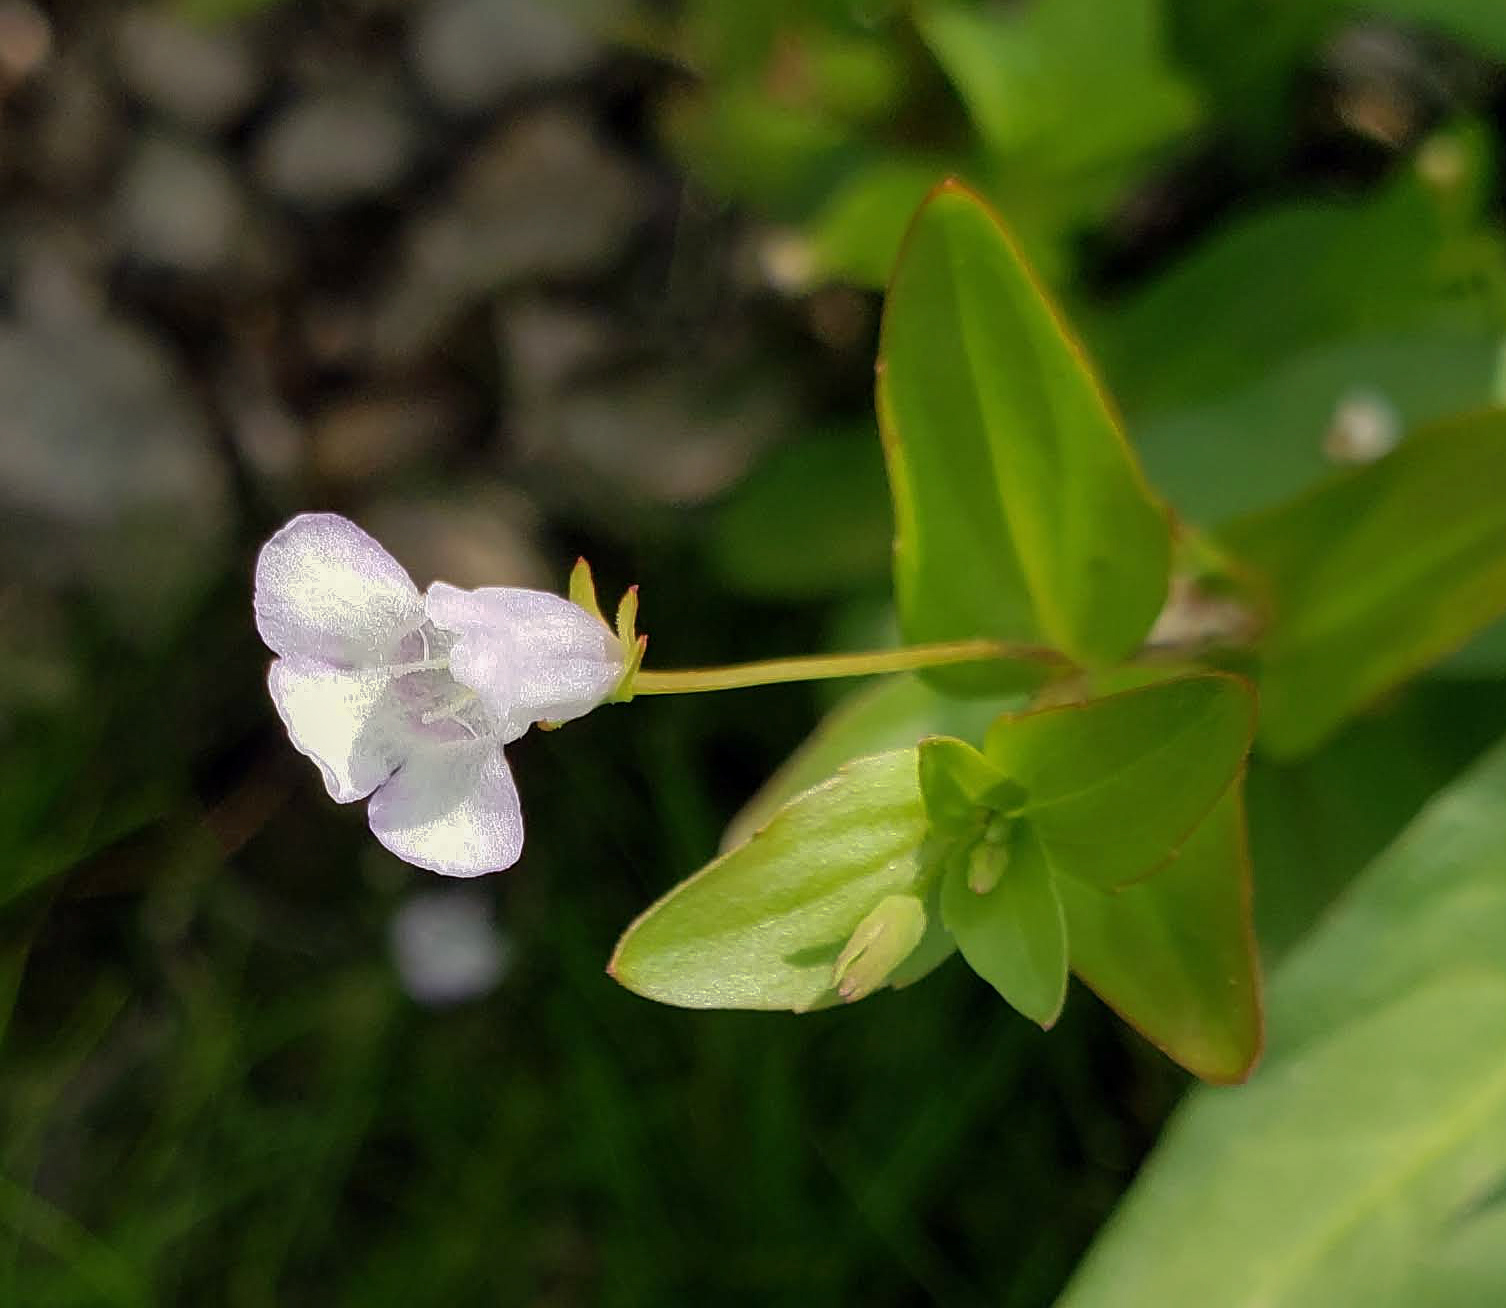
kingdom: Plantae
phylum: Tracheophyta
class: Magnoliopsida
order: Lamiales
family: Linderniaceae
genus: Lindernia
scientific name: Lindernia dubia
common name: Annual false pimpernel
